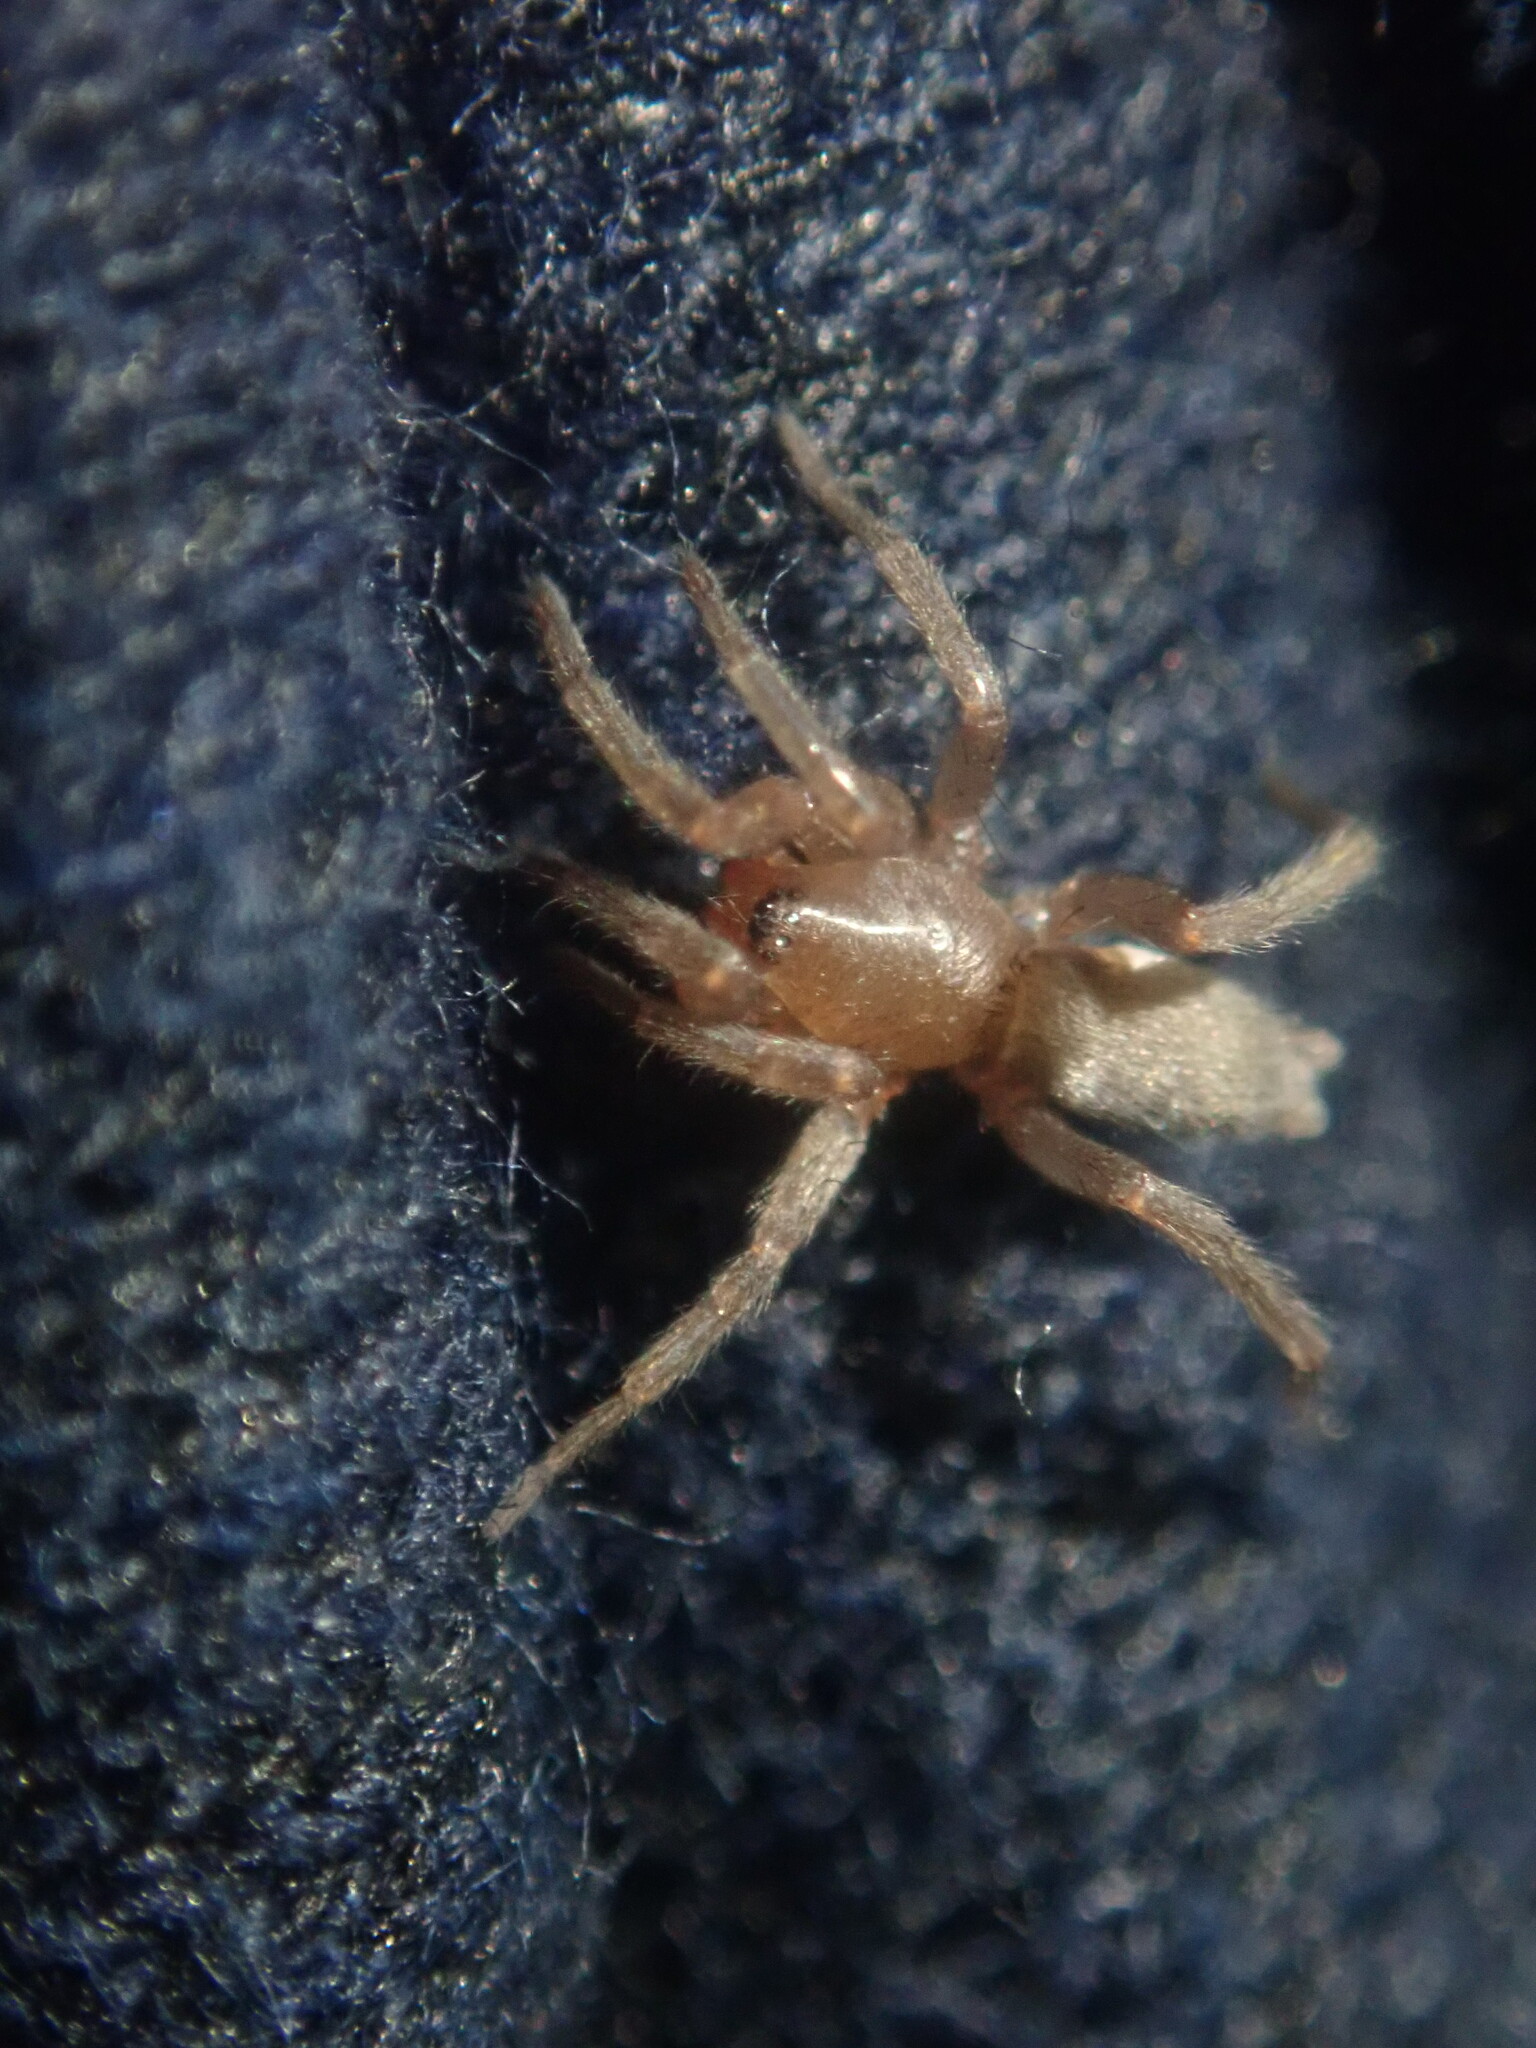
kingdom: Animalia
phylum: Arthropoda
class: Arachnida
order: Araneae
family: Gnaphosidae
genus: Scotophaeus
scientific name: Scotophaeus blackwalli
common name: Mouse spider
